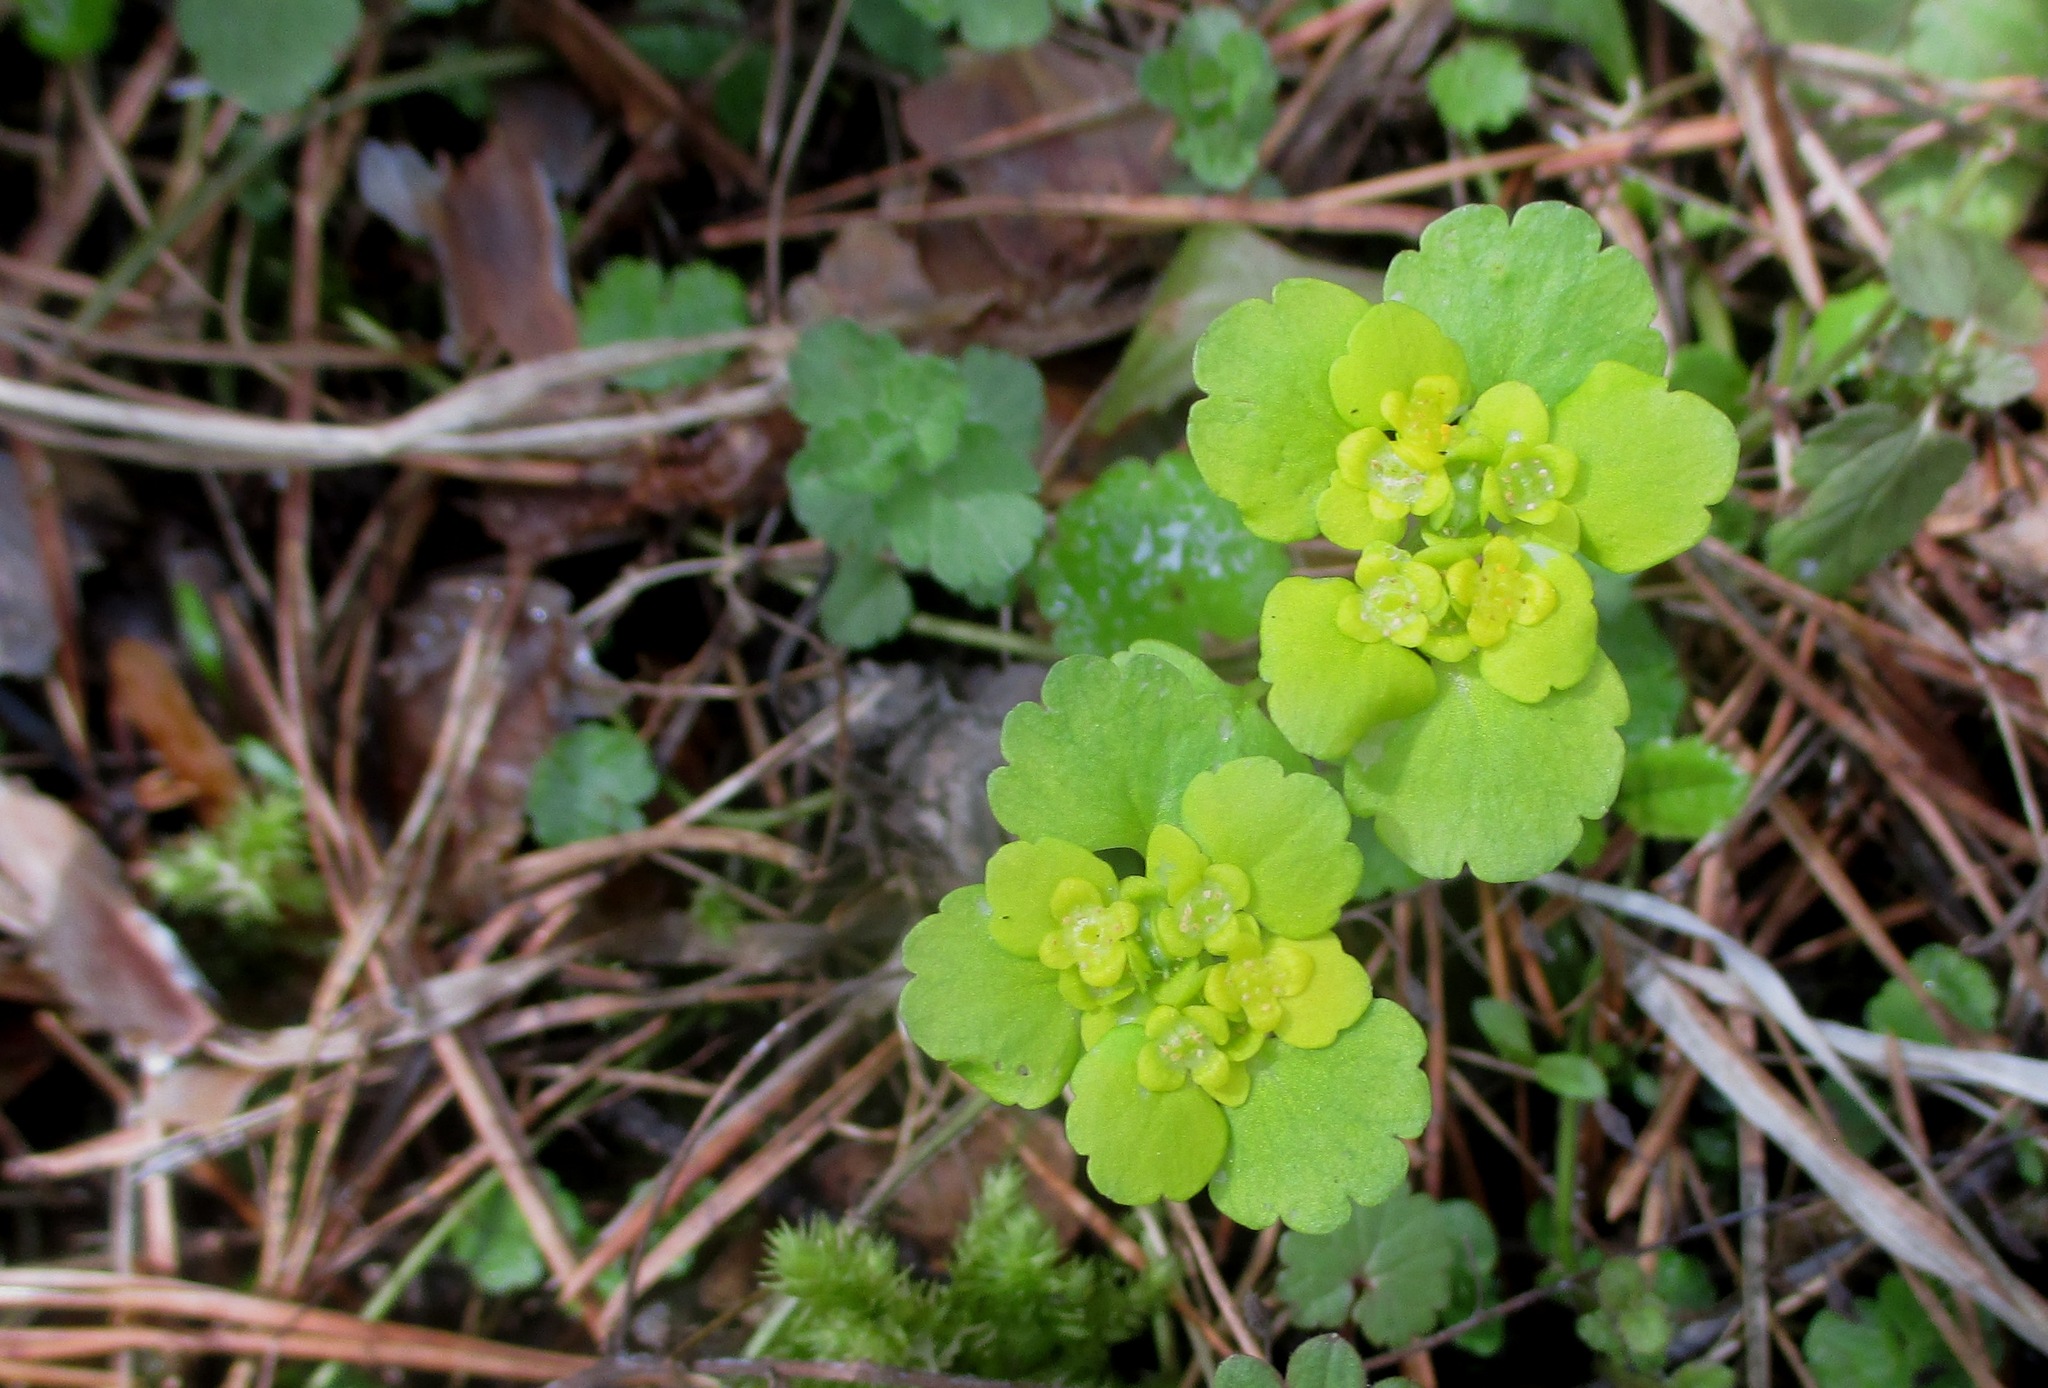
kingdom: Plantae
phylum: Tracheophyta
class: Magnoliopsida
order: Saxifragales
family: Saxifragaceae
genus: Chrysosplenium
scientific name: Chrysosplenium alternifolium
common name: Alternate-leaved golden-saxifrage
